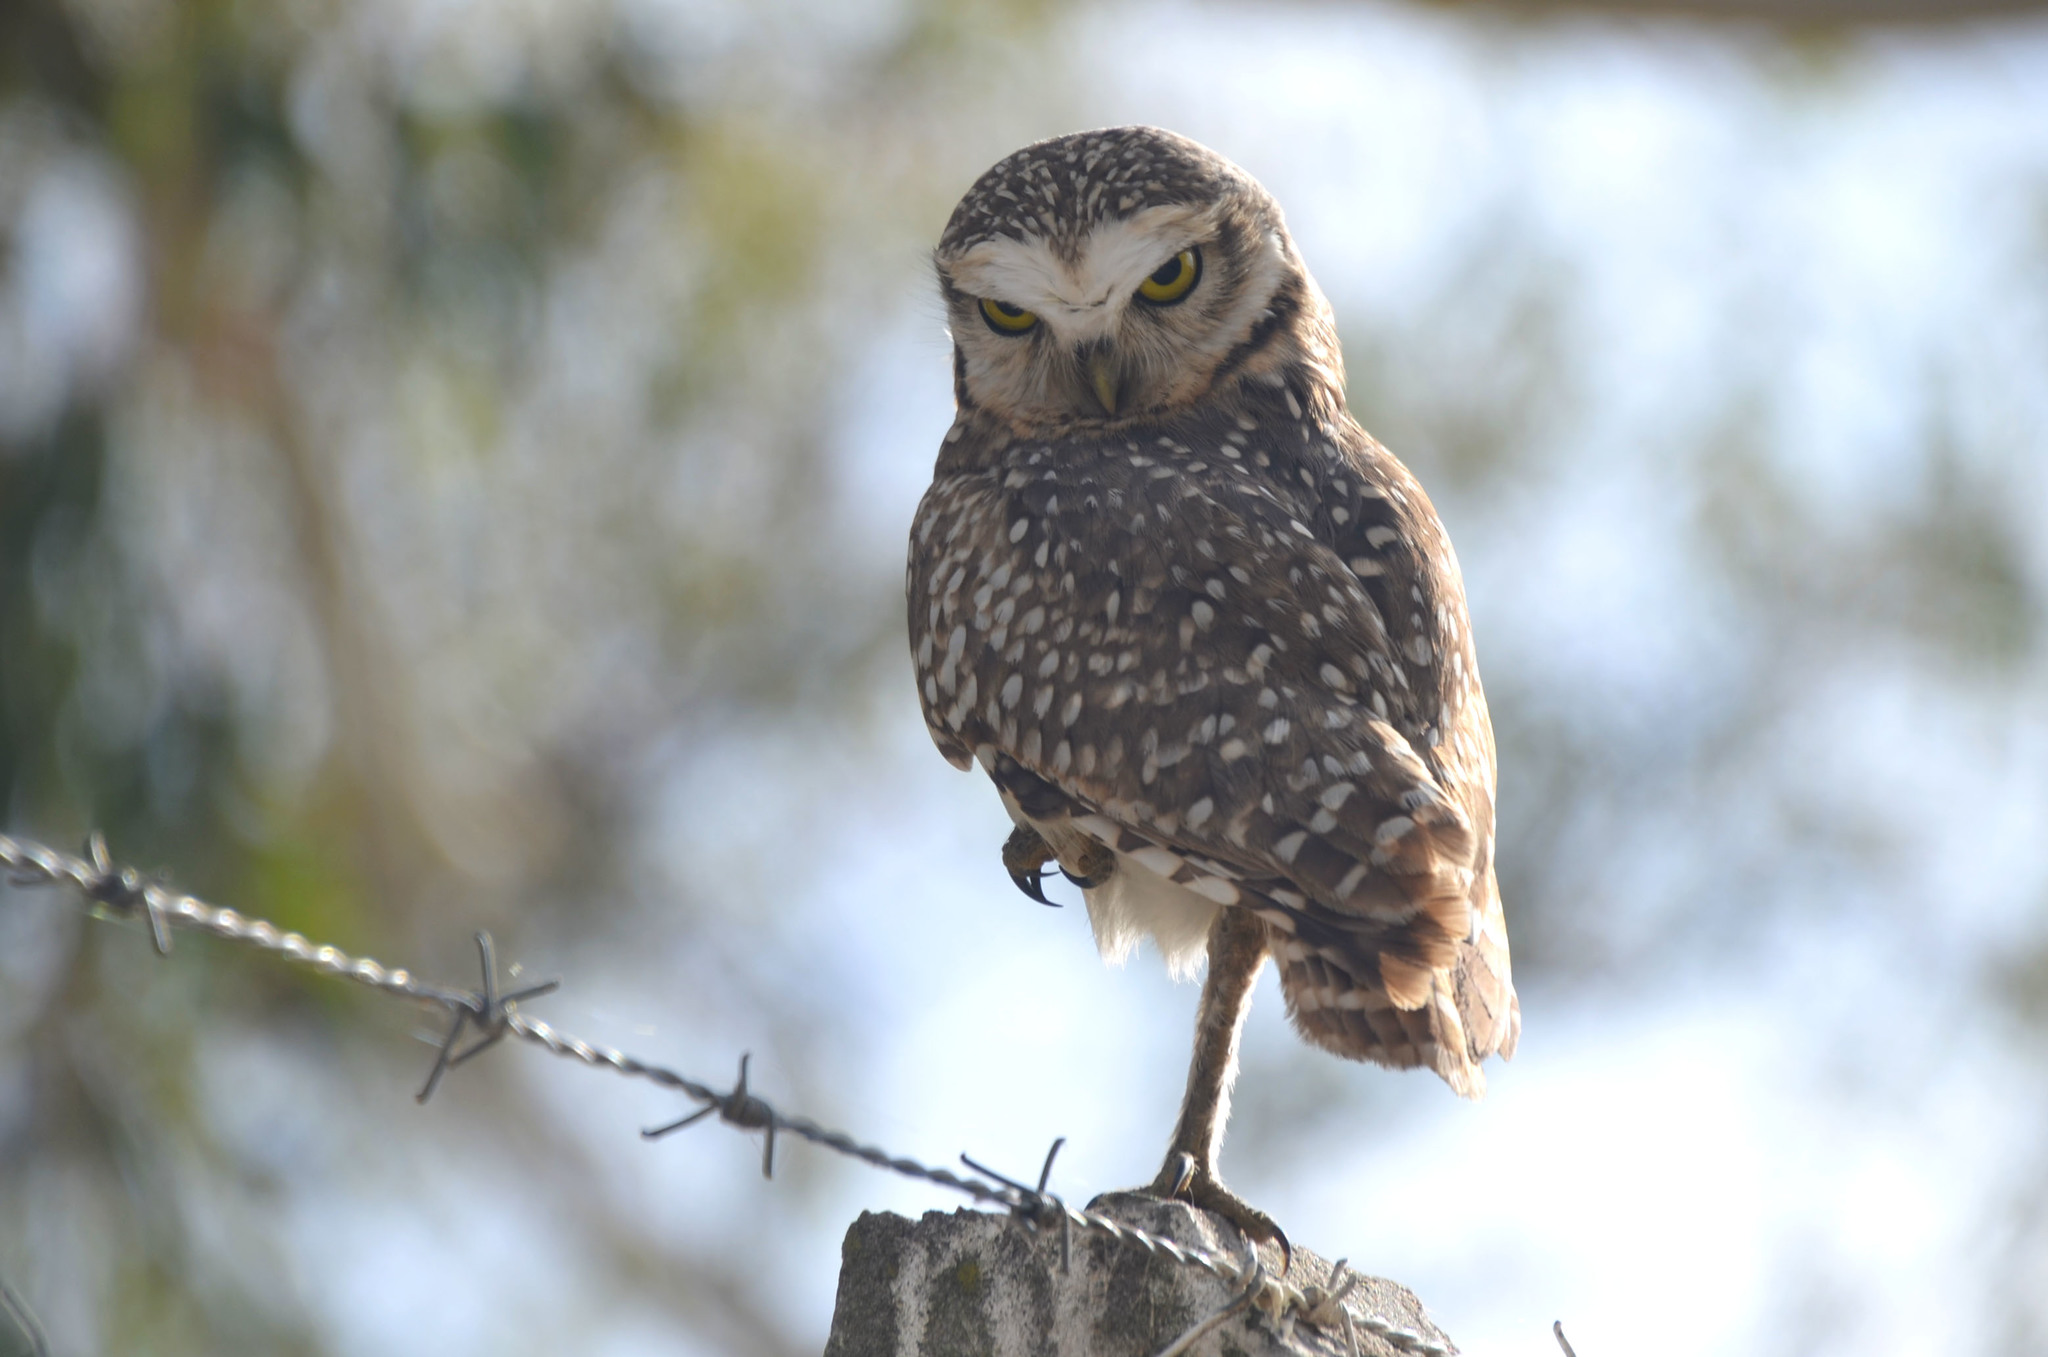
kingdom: Animalia
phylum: Chordata
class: Aves
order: Strigiformes
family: Strigidae
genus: Athene
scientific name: Athene cunicularia
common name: Burrowing owl
